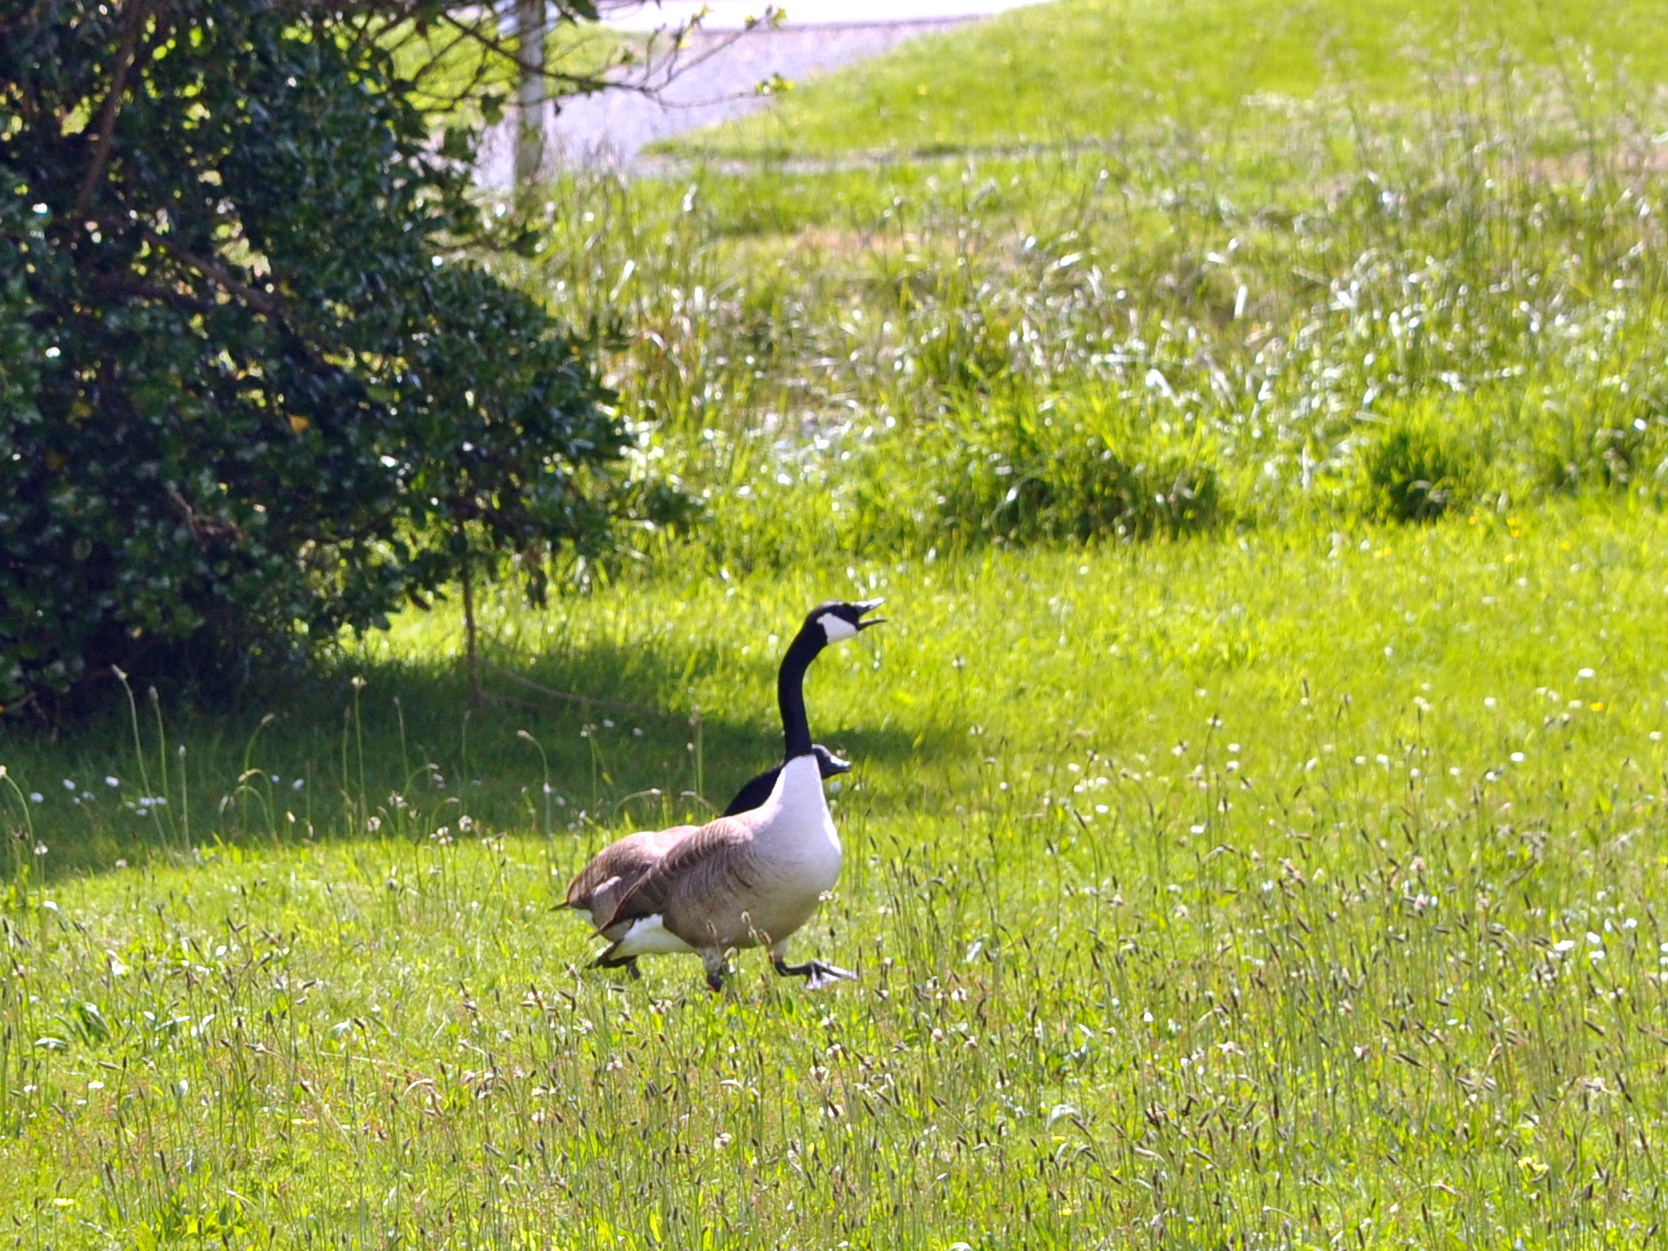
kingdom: Animalia
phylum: Chordata
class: Aves
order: Anseriformes
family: Anatidae
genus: Branta
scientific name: Branta canadensis
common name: Canada goose
